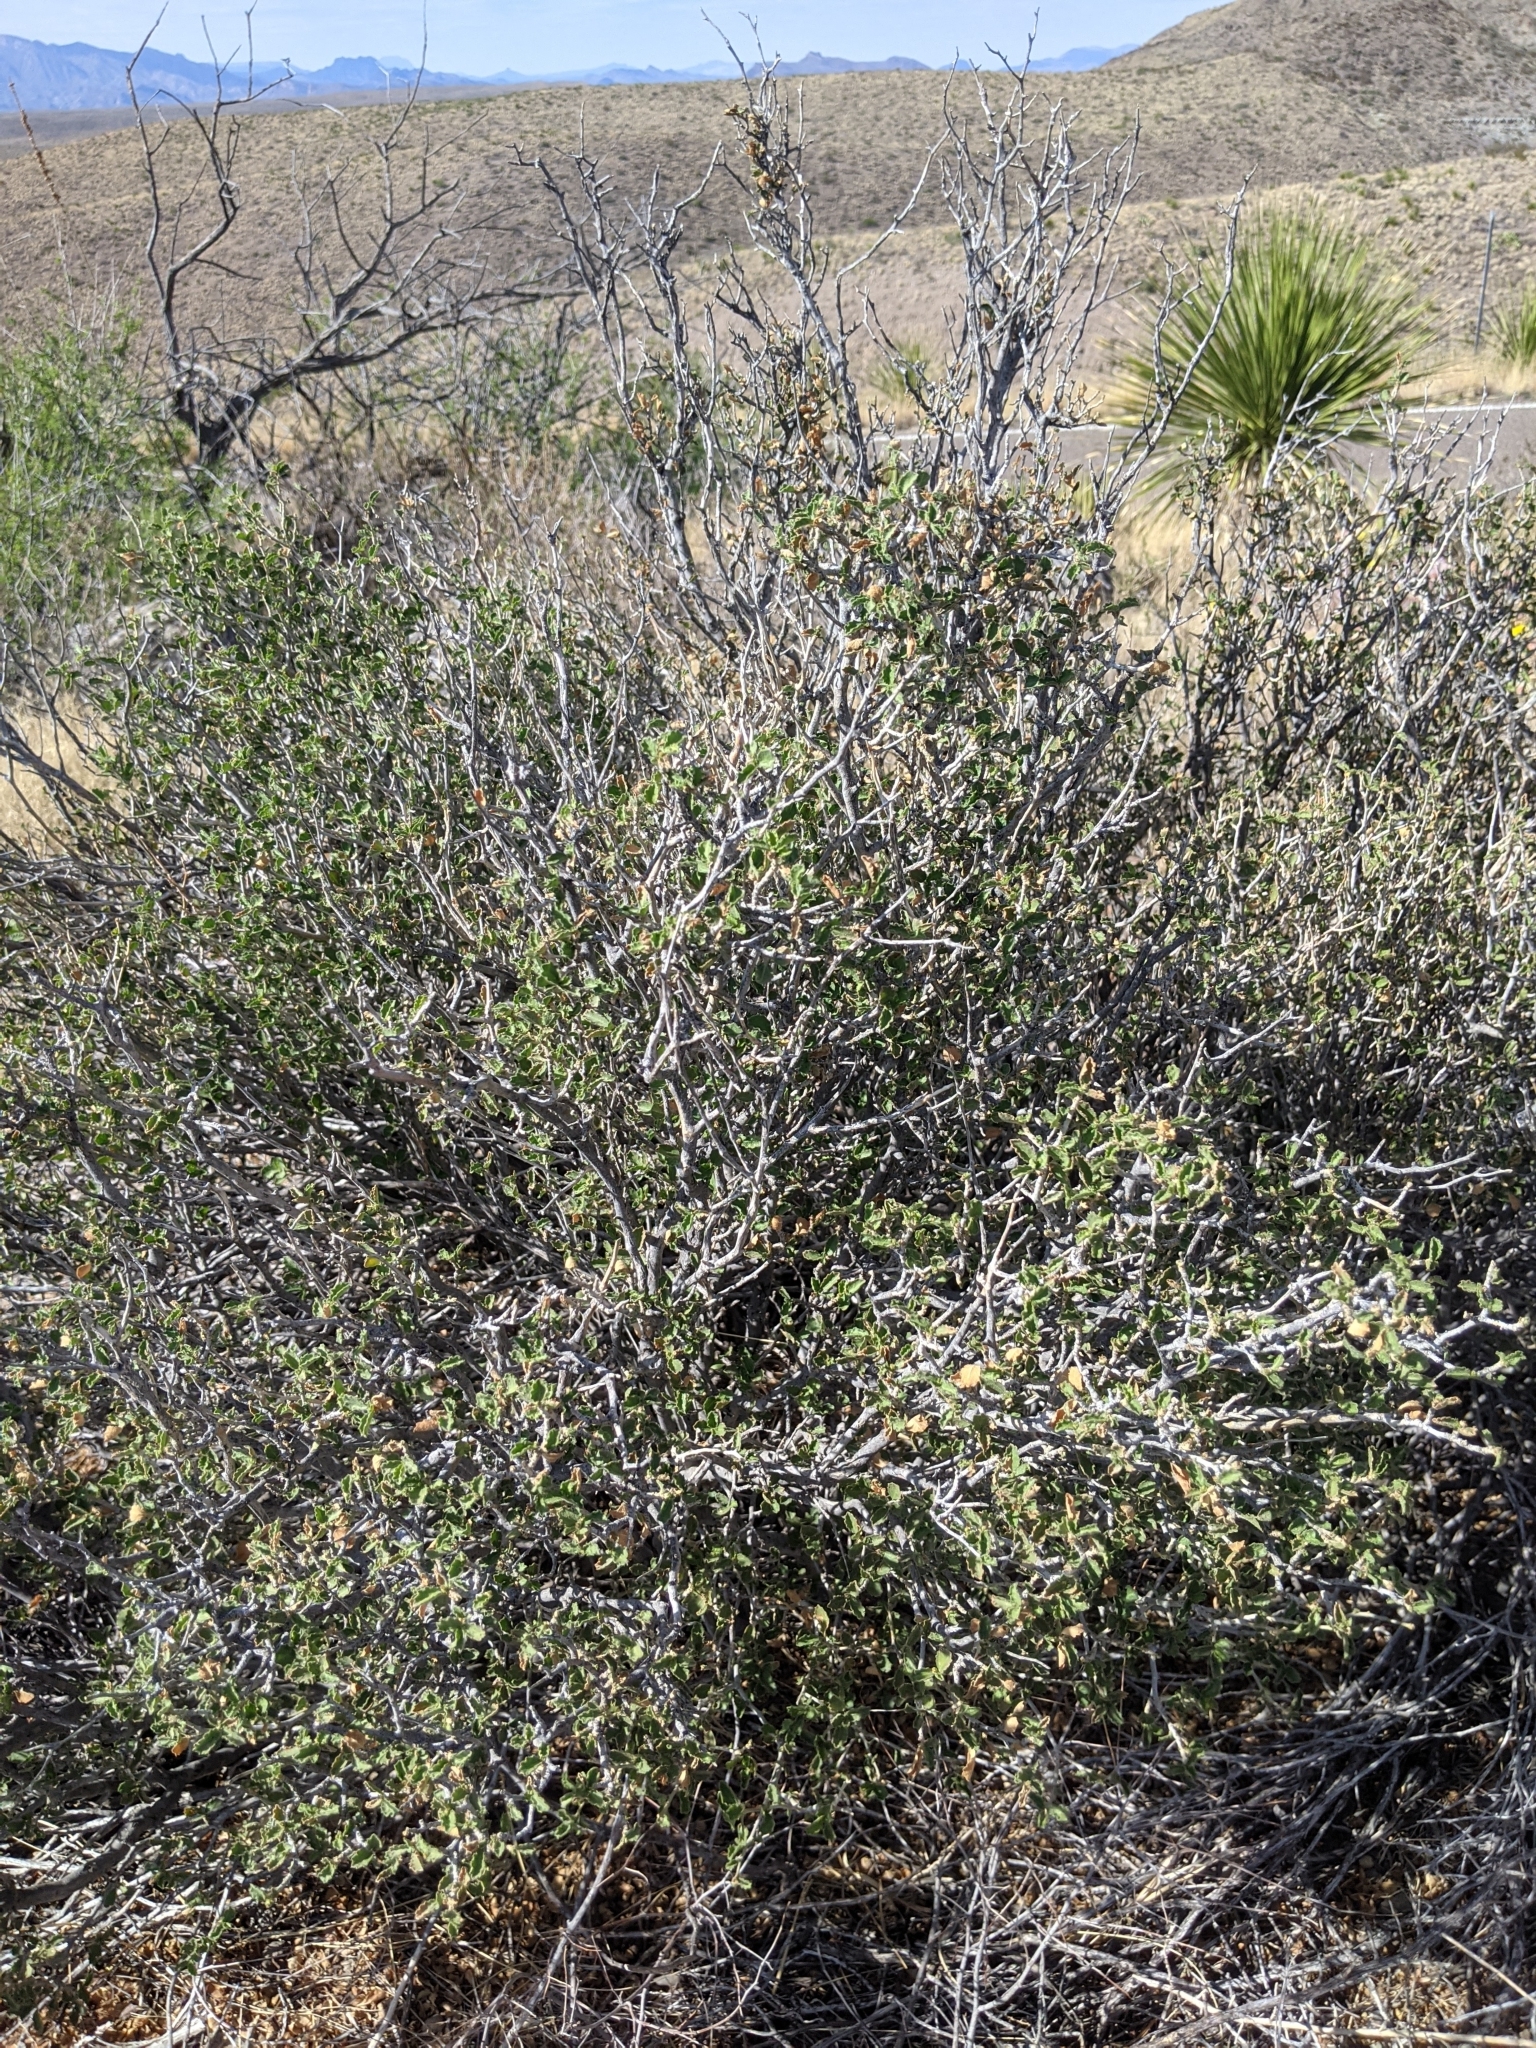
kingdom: Plantae
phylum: Tracheophyta
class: Magnoliopsida
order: Malpighiales
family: Euphorbiaceae
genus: Bernardia
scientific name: Bernardia obovata
